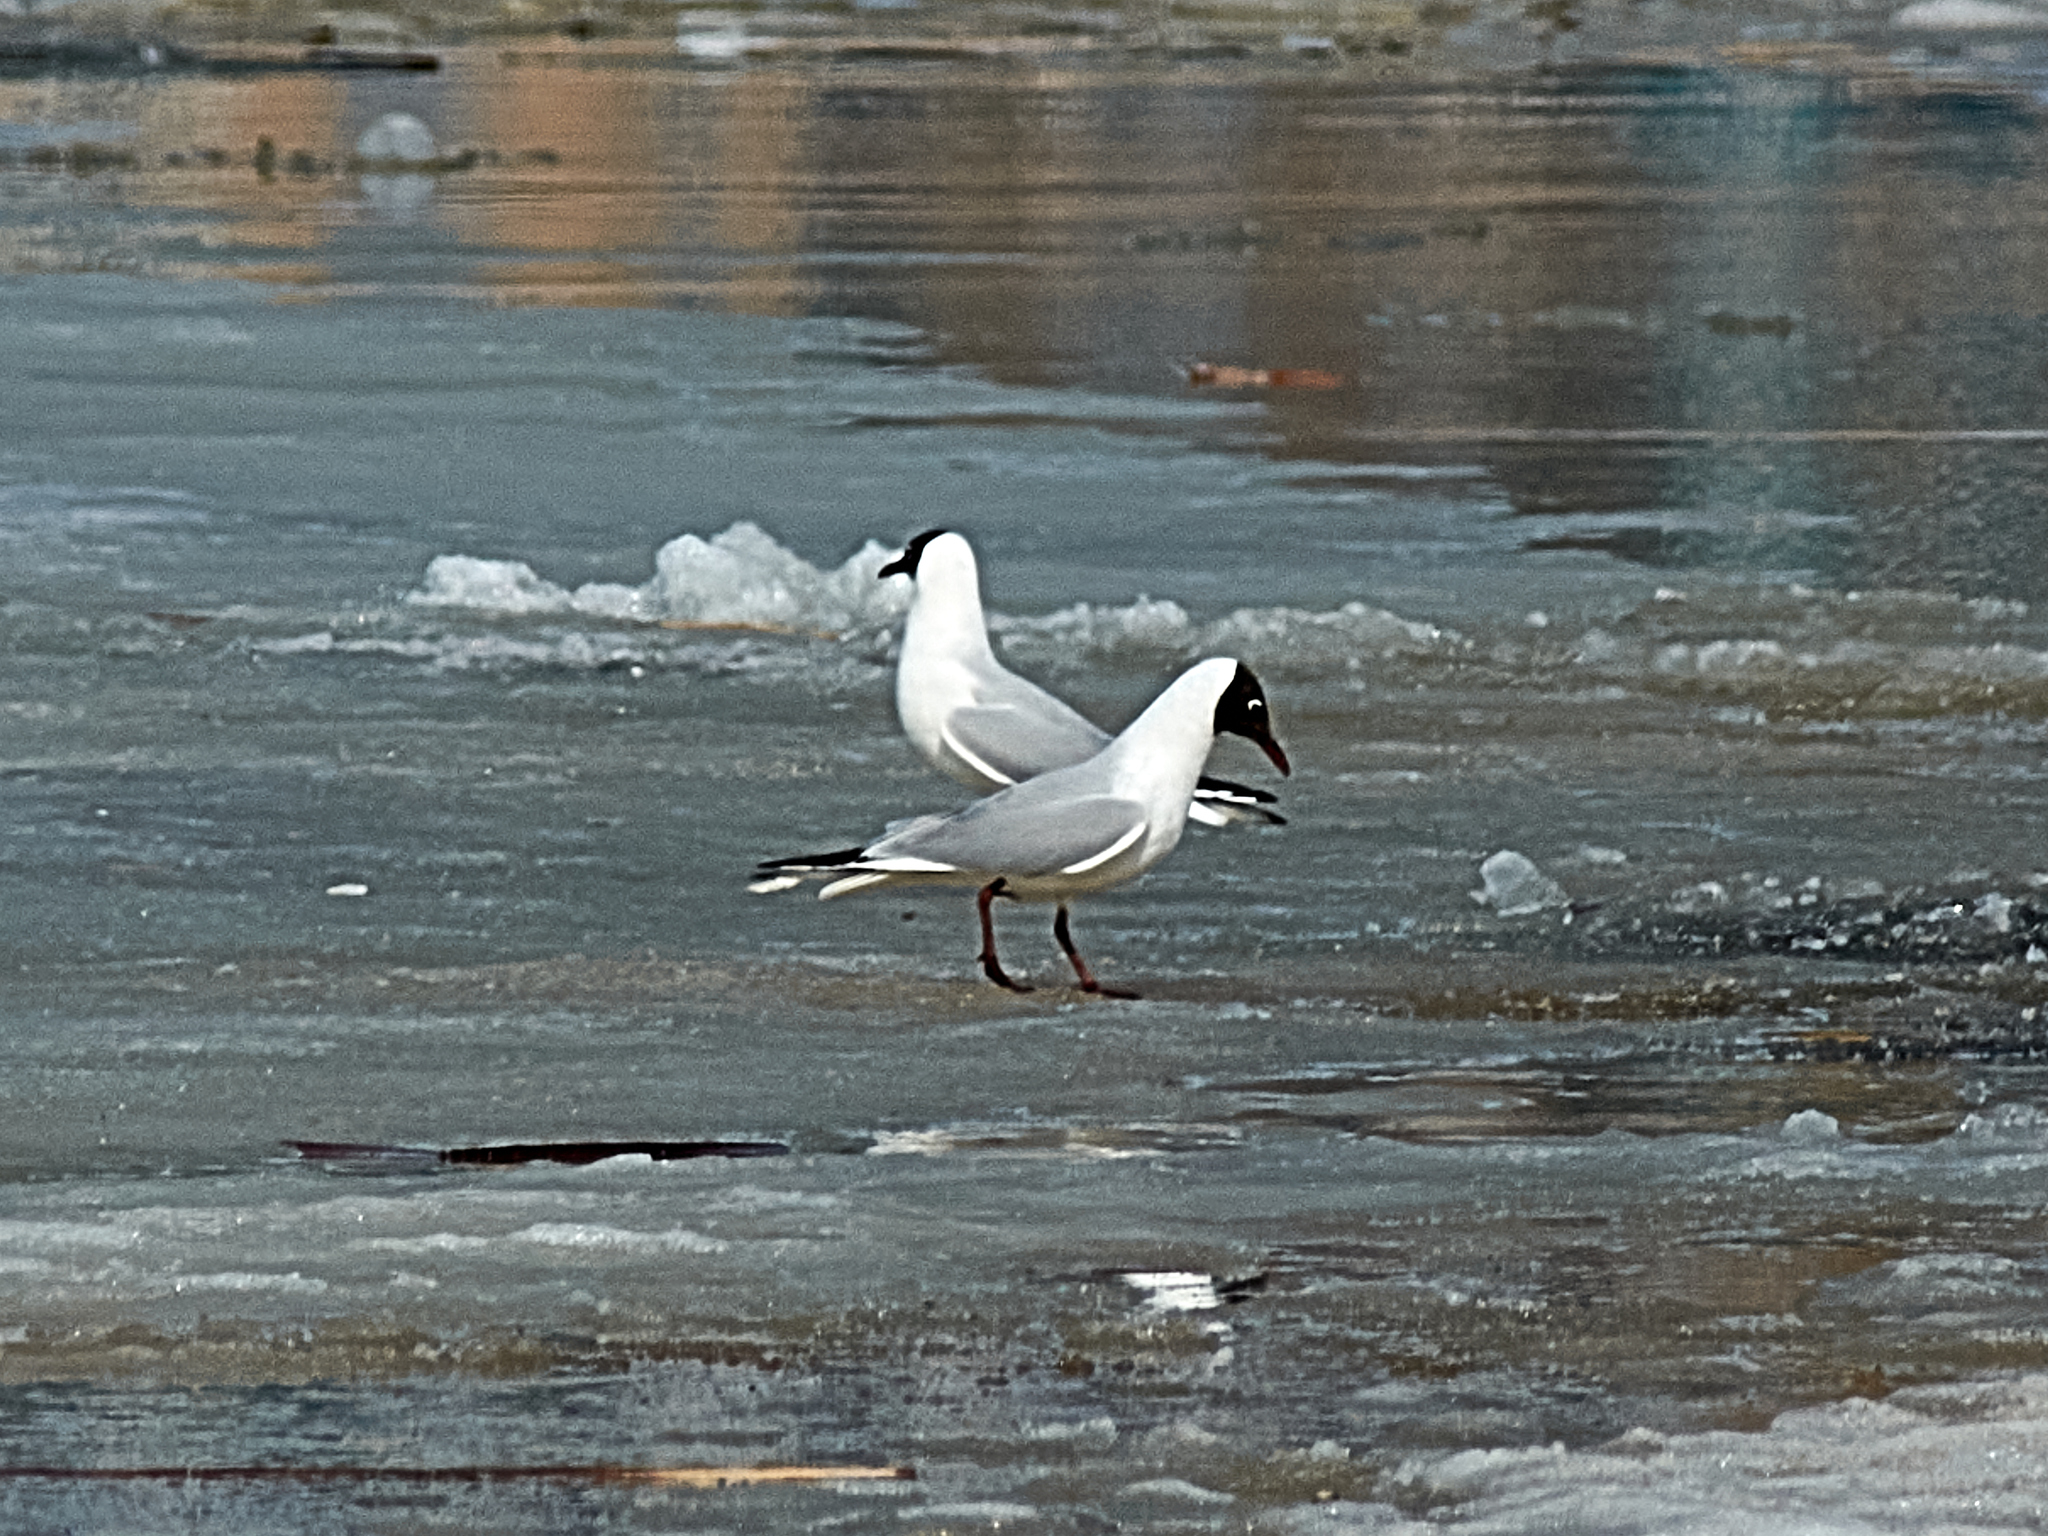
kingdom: Animalia
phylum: Chordata
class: Aves
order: Charadriiformes
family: Laridae
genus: Chroicocephalus
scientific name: Chroicocephalus ridibundus
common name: Black-headed gull
